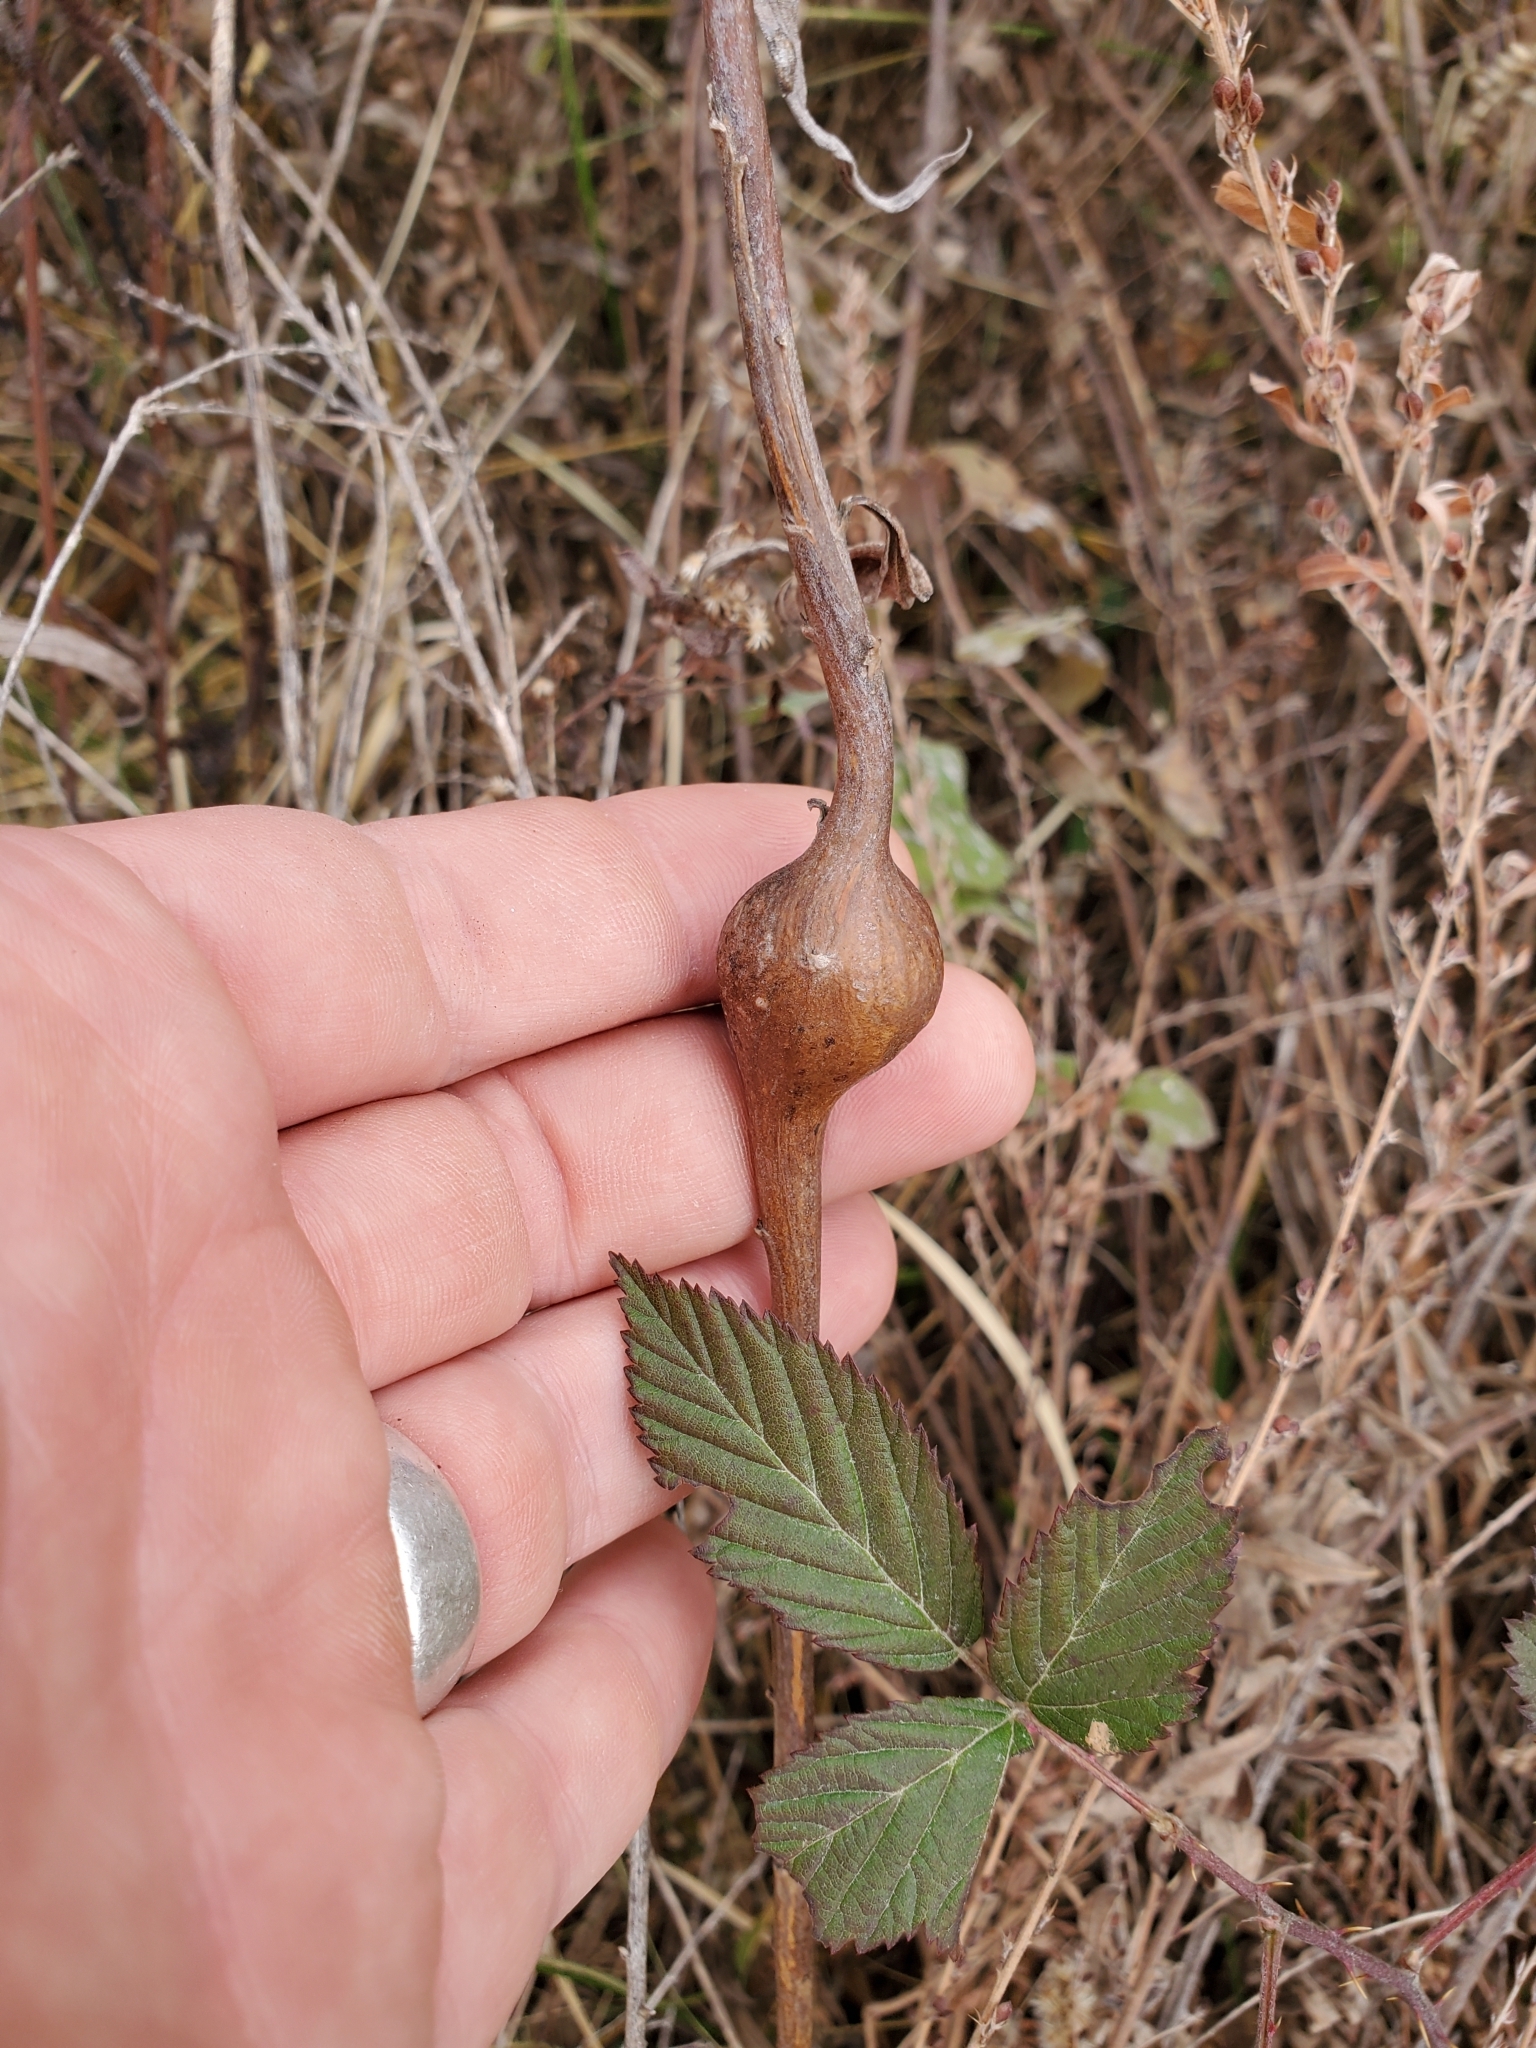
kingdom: Animalia
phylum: Arthropoda
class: Insecta
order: Diptera
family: Tephritidae
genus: Eurosta
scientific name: Eurosta solidaginis
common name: Goldenrod gall fly
